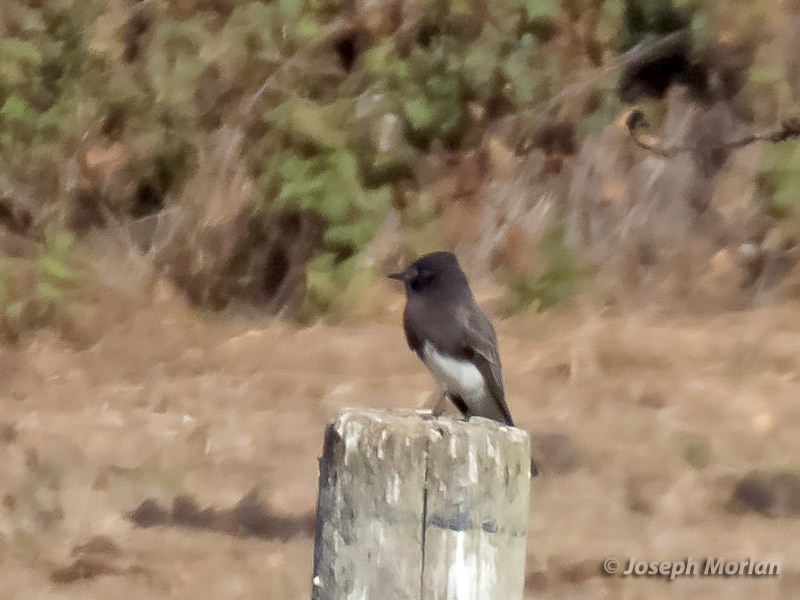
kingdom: Animalia
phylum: Chordata
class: Aves
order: Passeriformes
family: Tyrannidae
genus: Sayornis
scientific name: Sayornis nigricans
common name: Black phoebe
